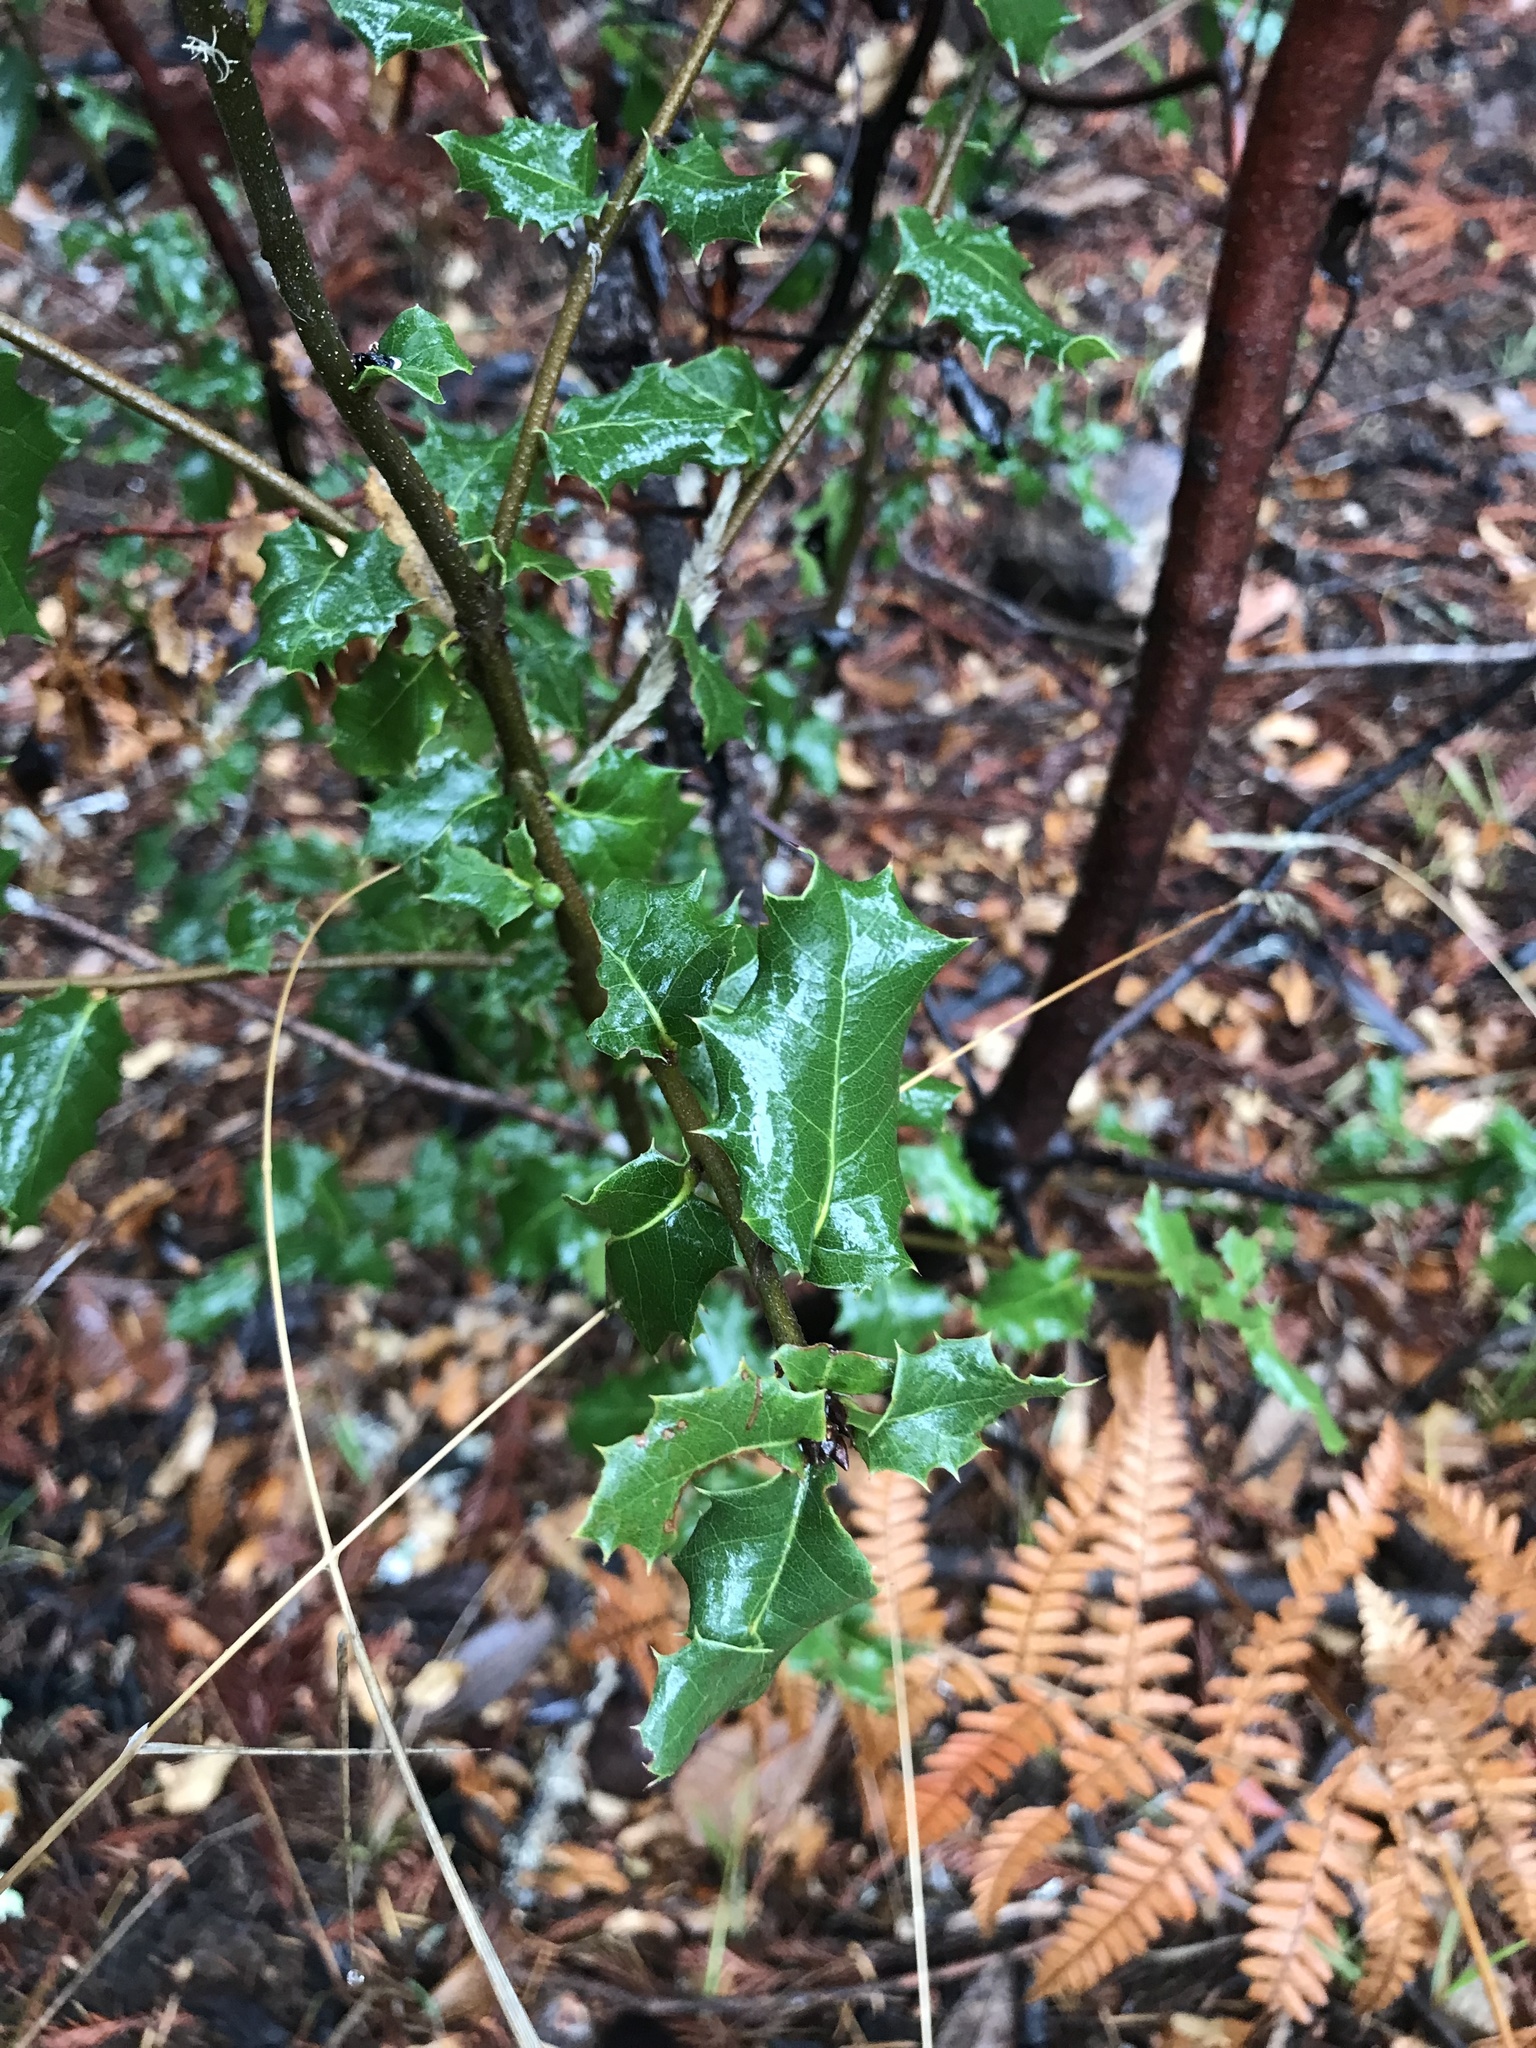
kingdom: Plantae
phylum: Tracheophyta
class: Magnoliopsida
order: Aquifoliales
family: Aquifoliaceae
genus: Ilex
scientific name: Ilex aquifolium
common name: English holly
